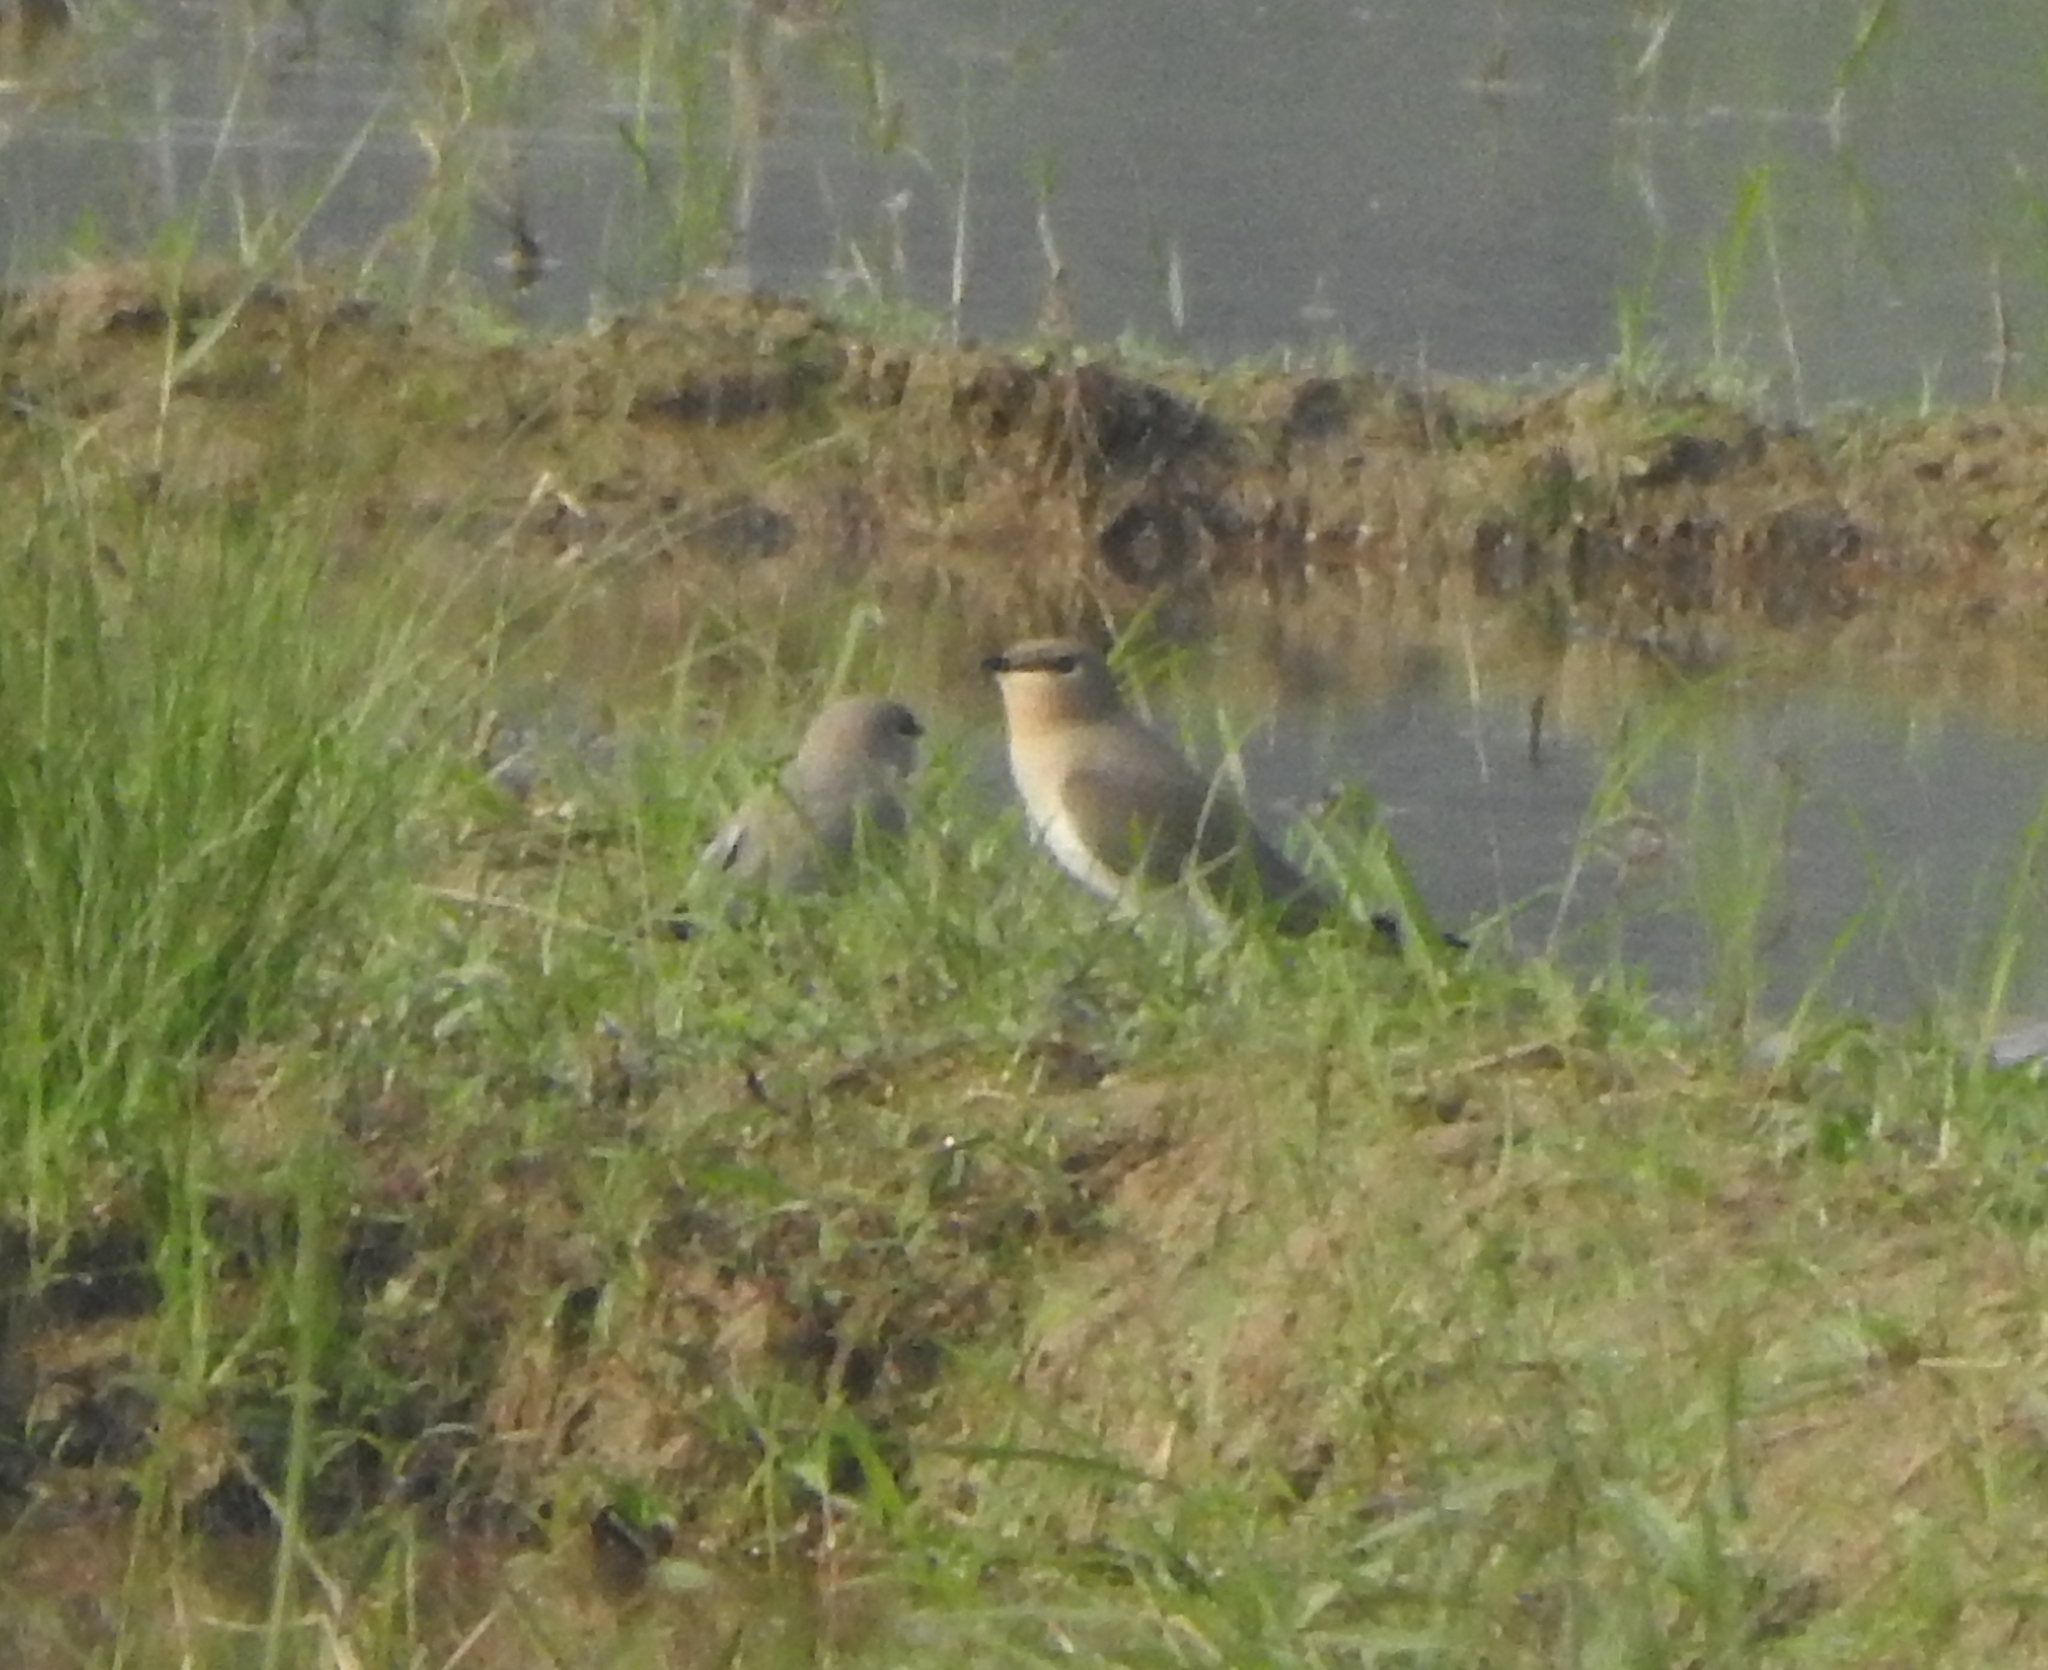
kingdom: Animalia
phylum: Chordata
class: Aves
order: Charadriiformes
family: Glareolidae
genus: Glareola
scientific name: Glareola lactea
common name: Small pratincole
